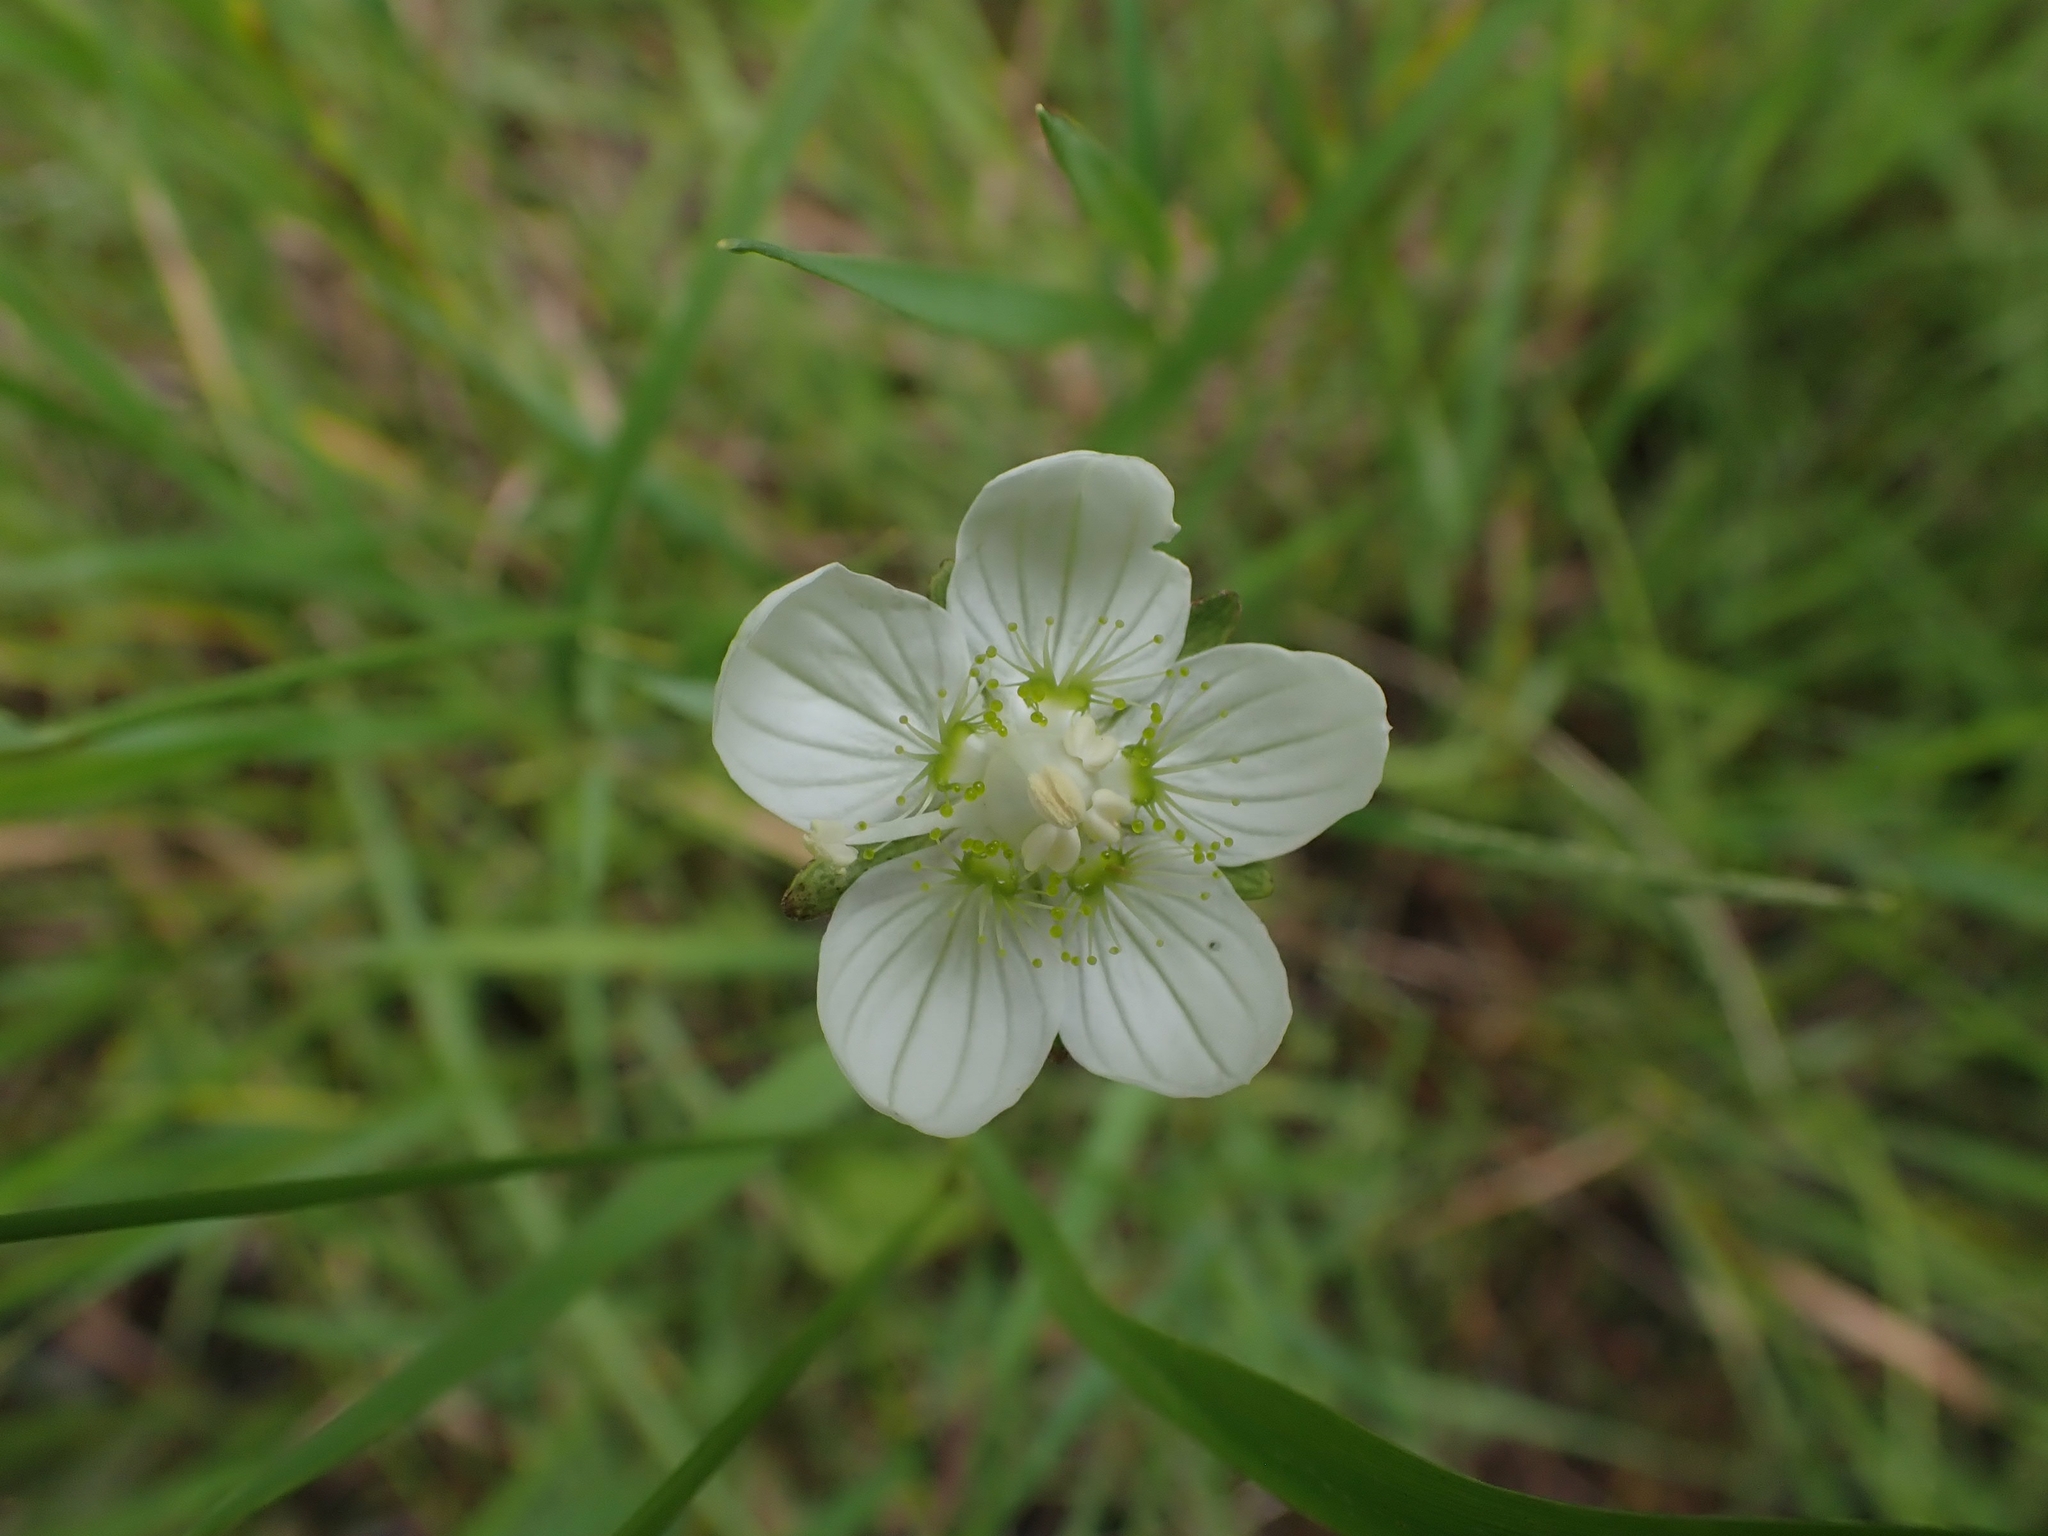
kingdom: Plantae
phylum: Tracheophyta
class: Magnoliopsida
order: Celastrales
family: Parnassiaceae
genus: Parnassia
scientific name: Parnassia palustris
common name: Grass-of-parnassus
